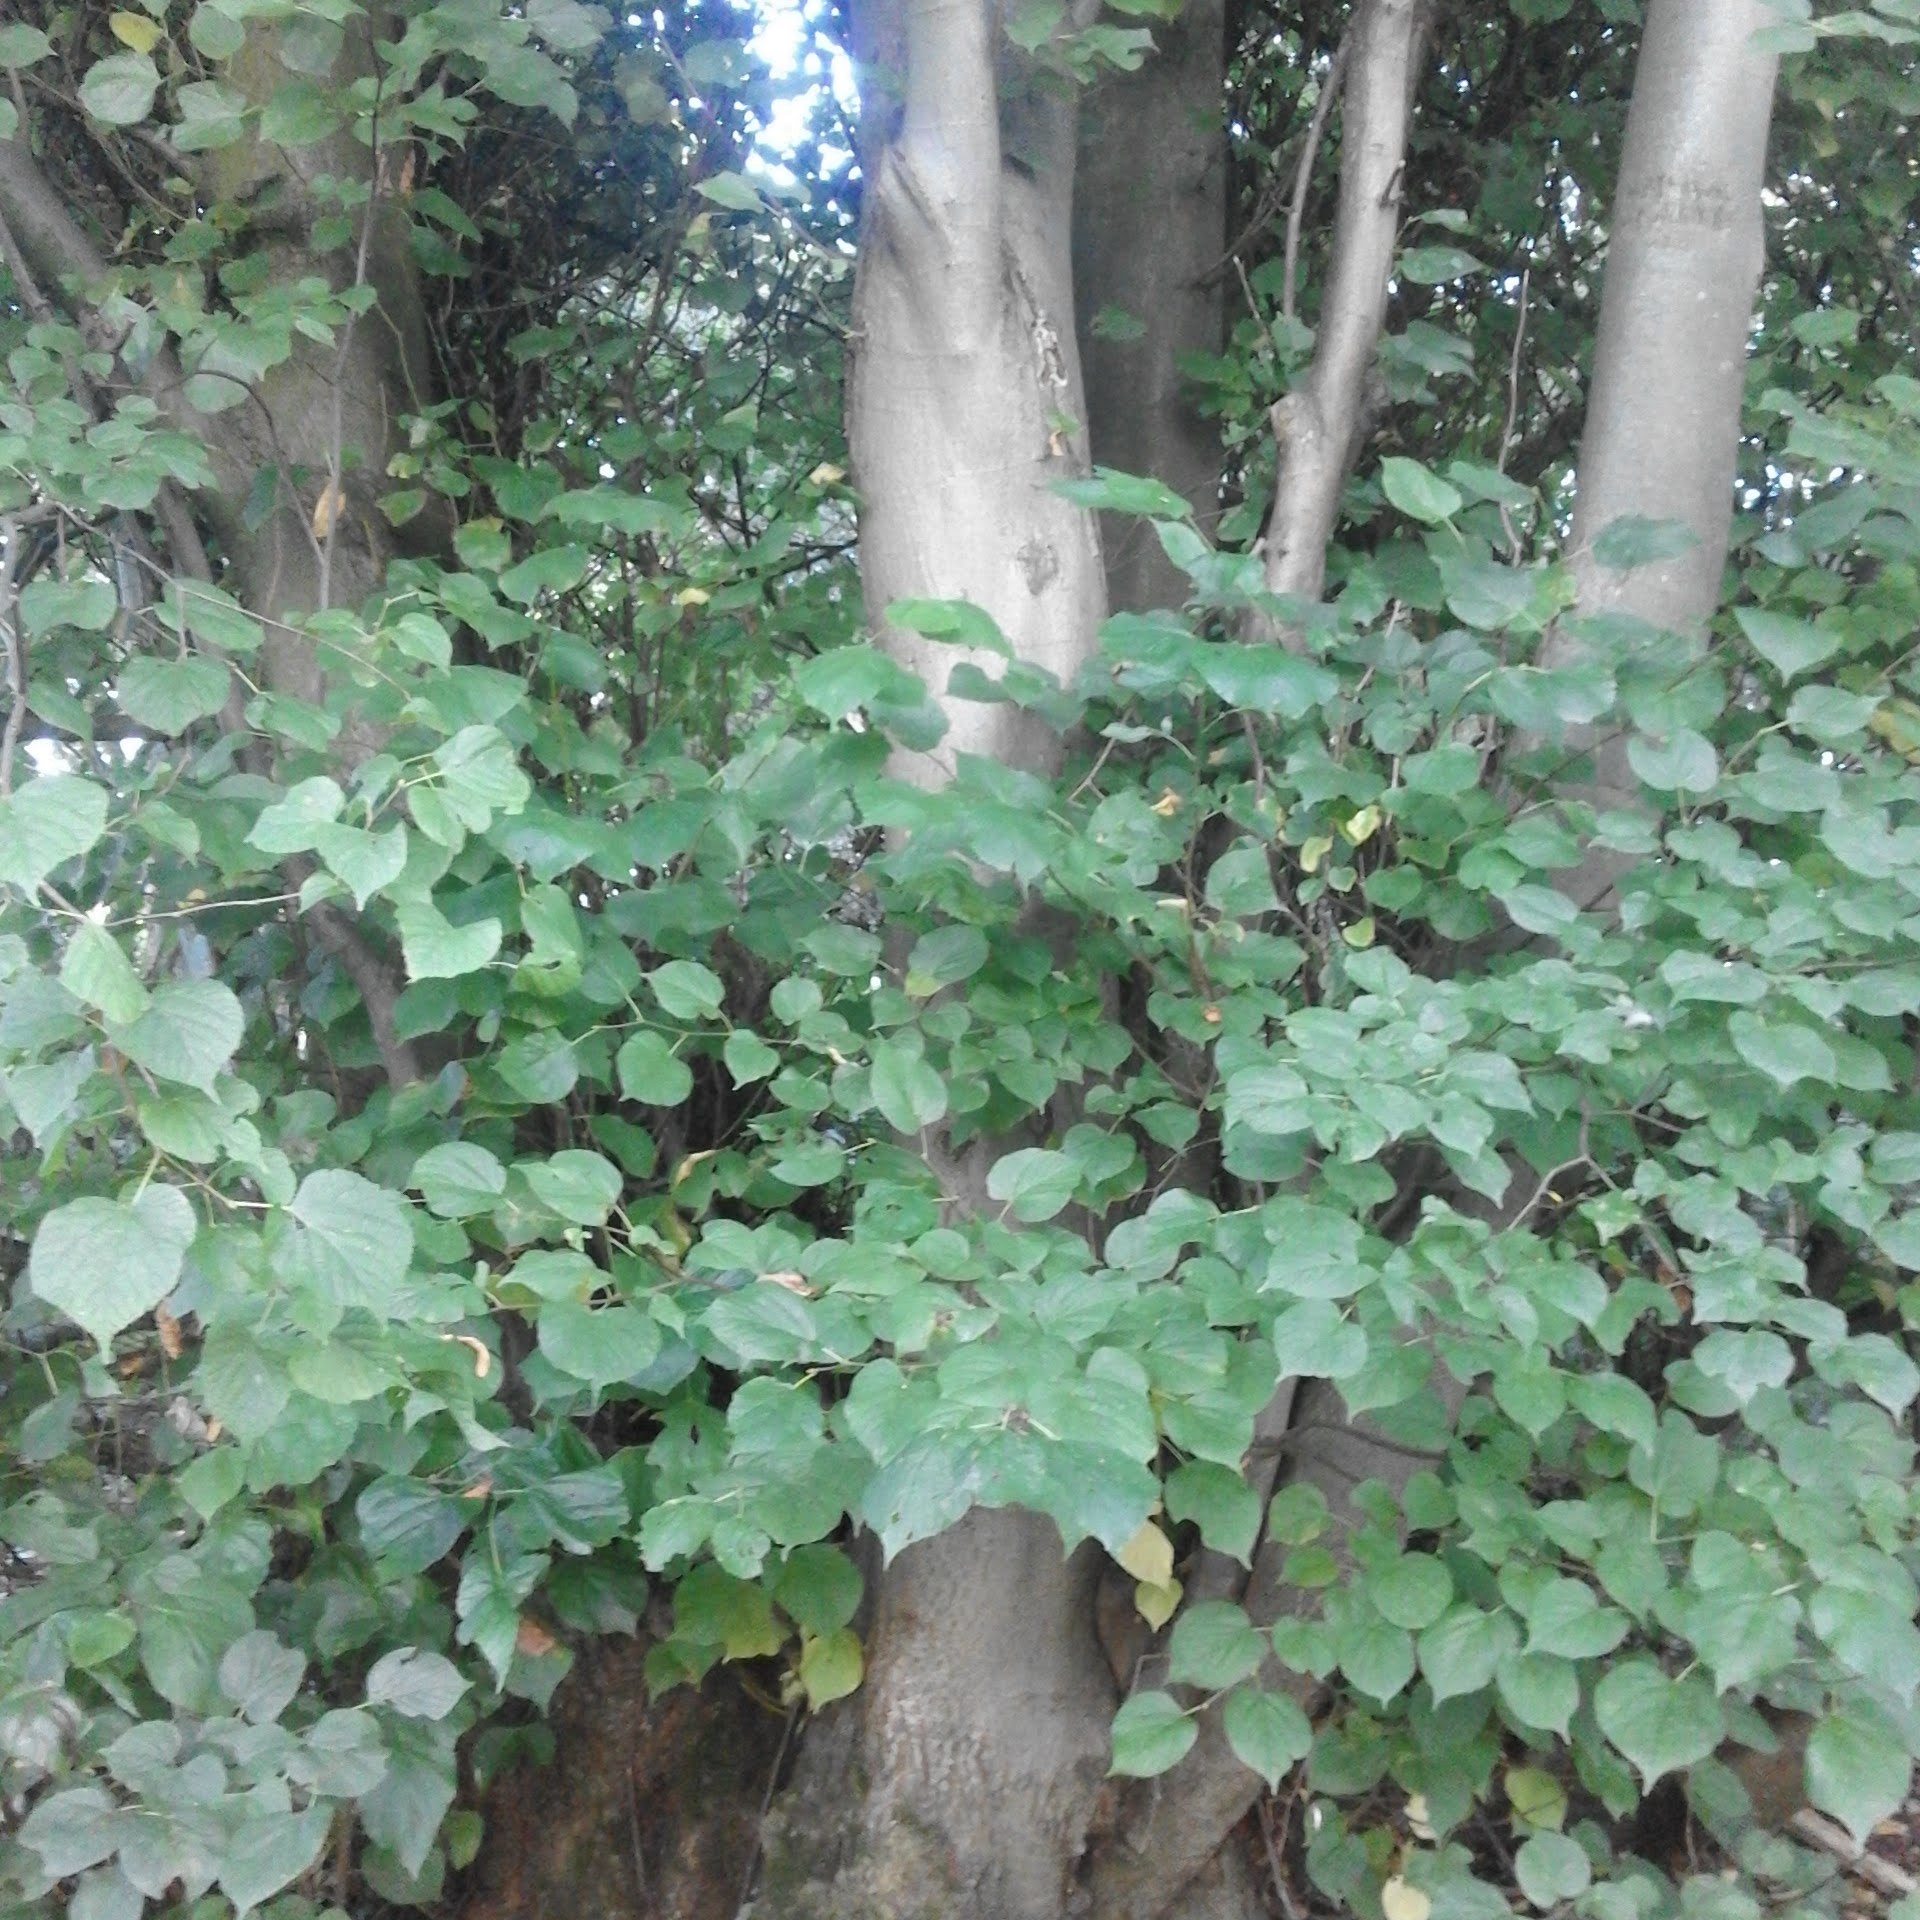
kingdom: Plantae
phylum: Tracheophyta
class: Magnoliopsida
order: Malvales
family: Malvaceae
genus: Tilia
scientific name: Tilia europaea
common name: European linden
